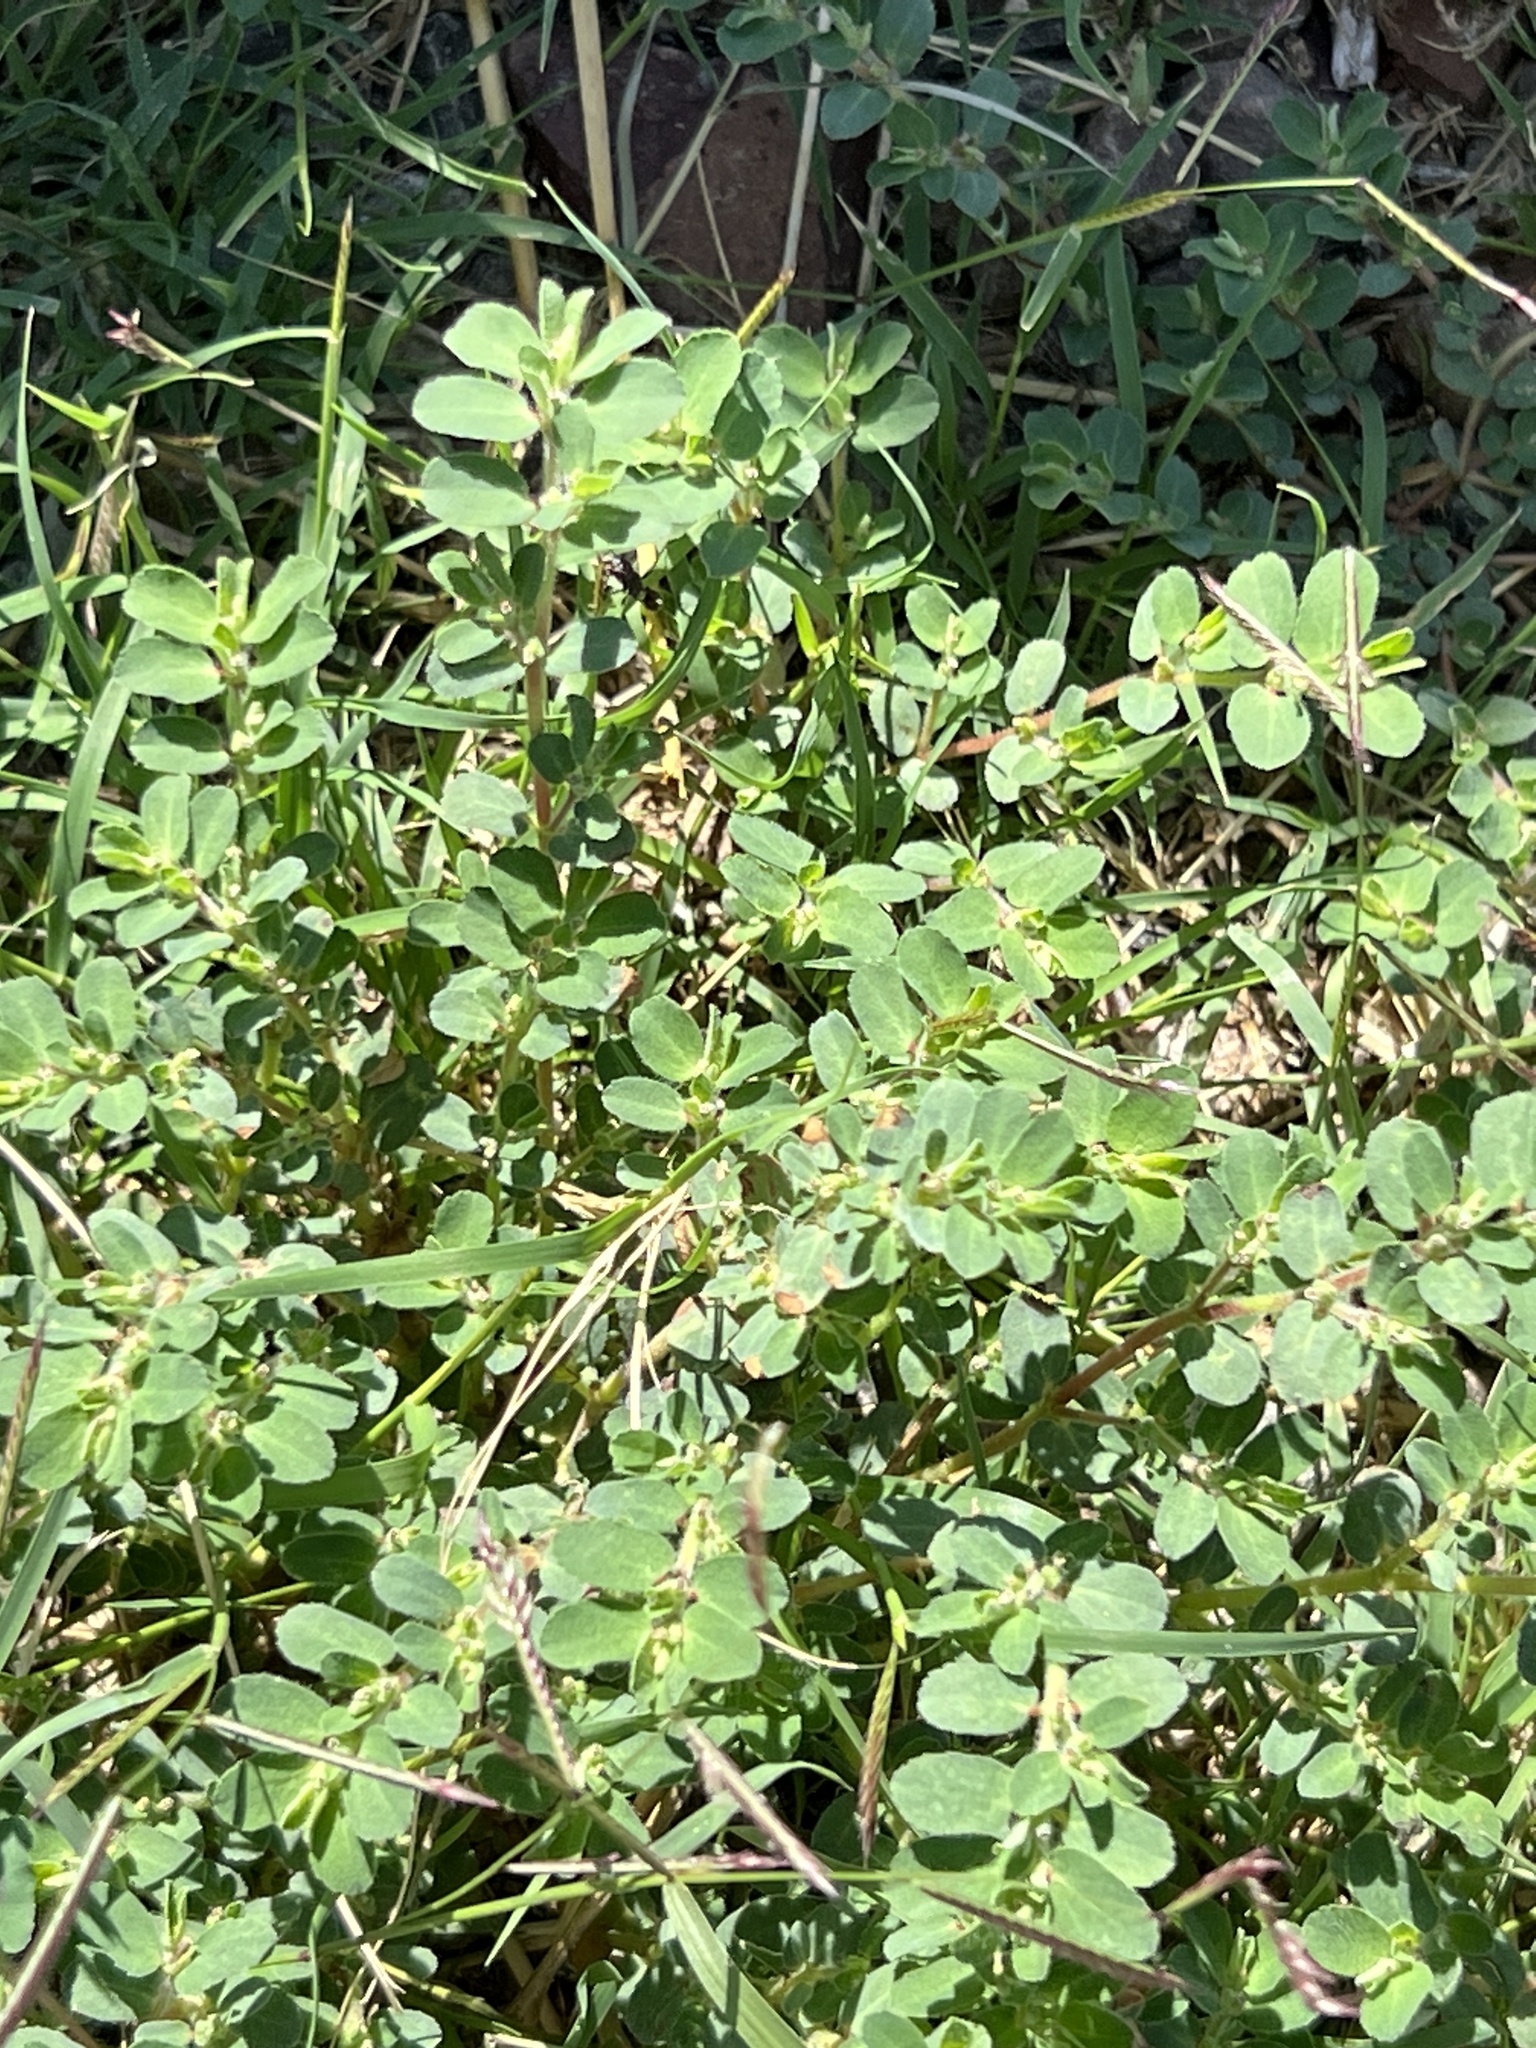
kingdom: Plantae
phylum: Tracheophyta
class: Magnoliopsida
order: Malpighiales
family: Euphorbiaceae
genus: Euphorbia
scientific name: Euphorbia stictospora
